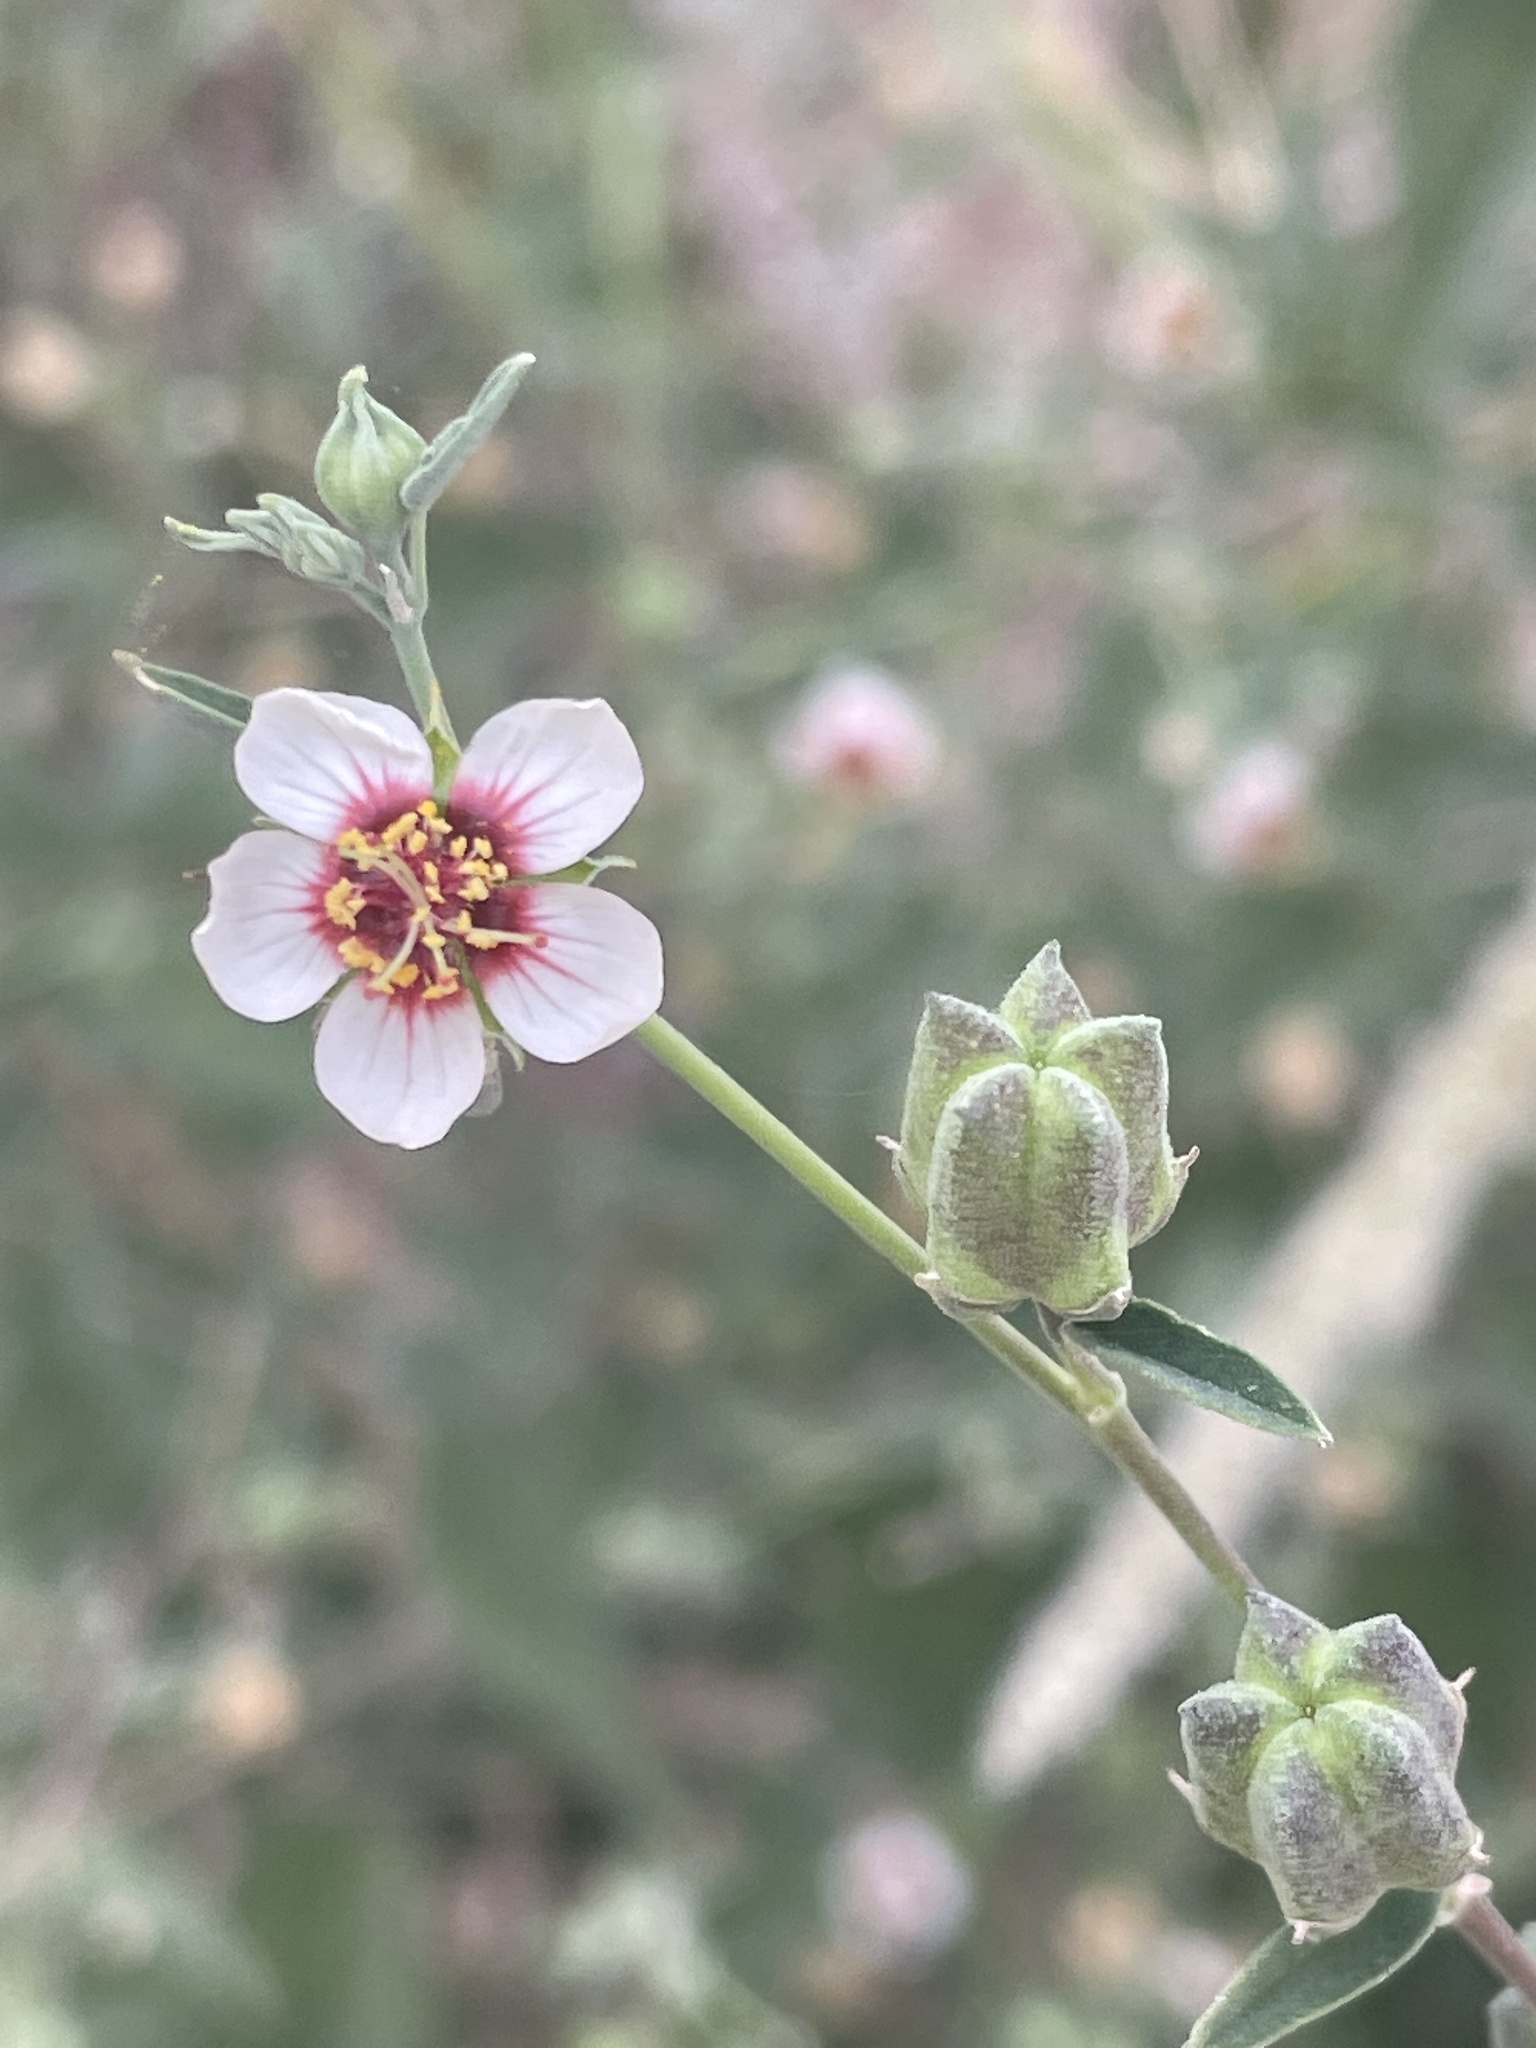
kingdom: Plantae
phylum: Tracheophyta
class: Magnoliopsida
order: Malvales
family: Malvaceae
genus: Abutilon
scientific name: Abutilon incanum
